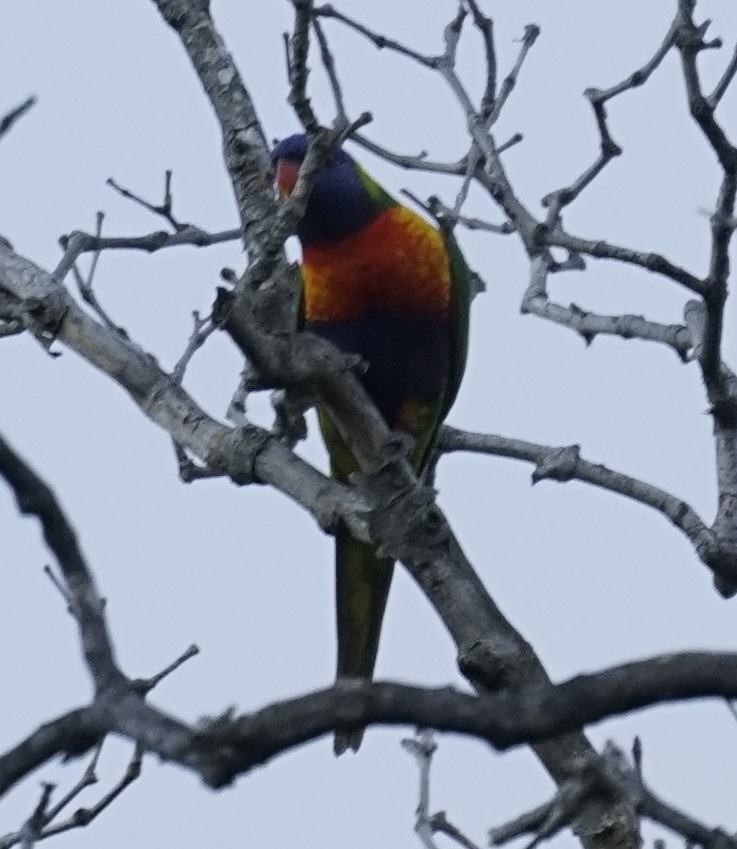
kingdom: Animalia
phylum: Chordata
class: Aves
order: Psittaciformes
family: Psittacidae
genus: Trichoglossus
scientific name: Trichoglossus haematodus
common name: Coconut lorikeet
